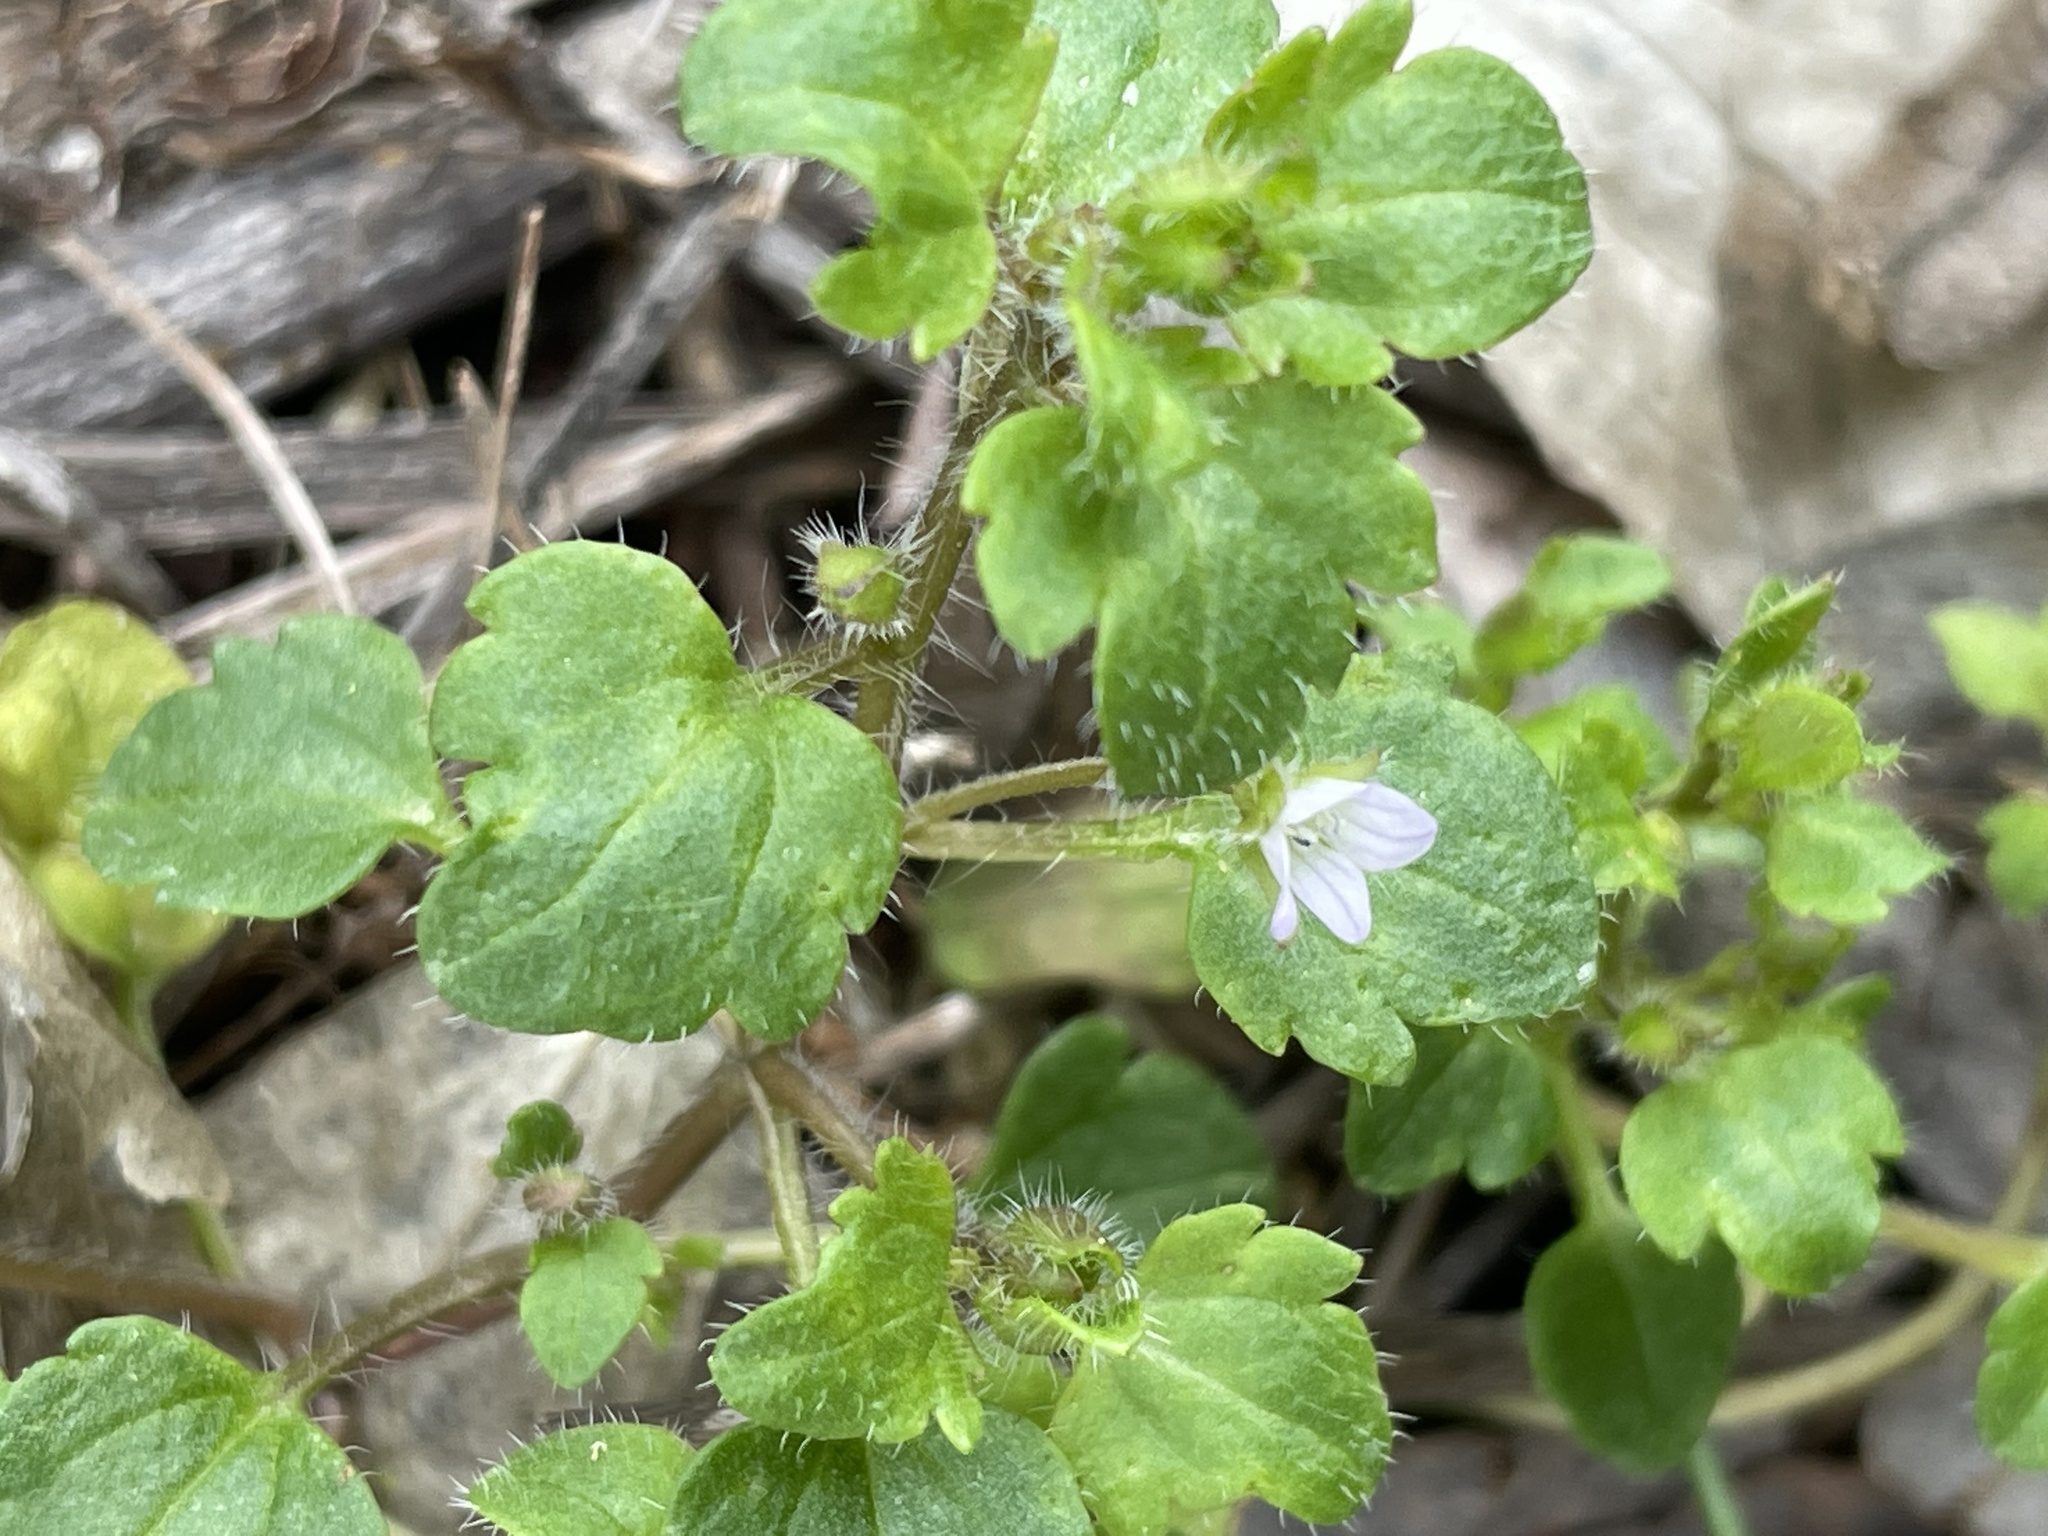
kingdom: Plantae
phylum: Tracheophyta
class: Magnoliopsida
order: Lamiales
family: Plantaginaceae
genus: Veronica
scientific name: Veronica sublobata
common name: False ivy-leaved speedwell
